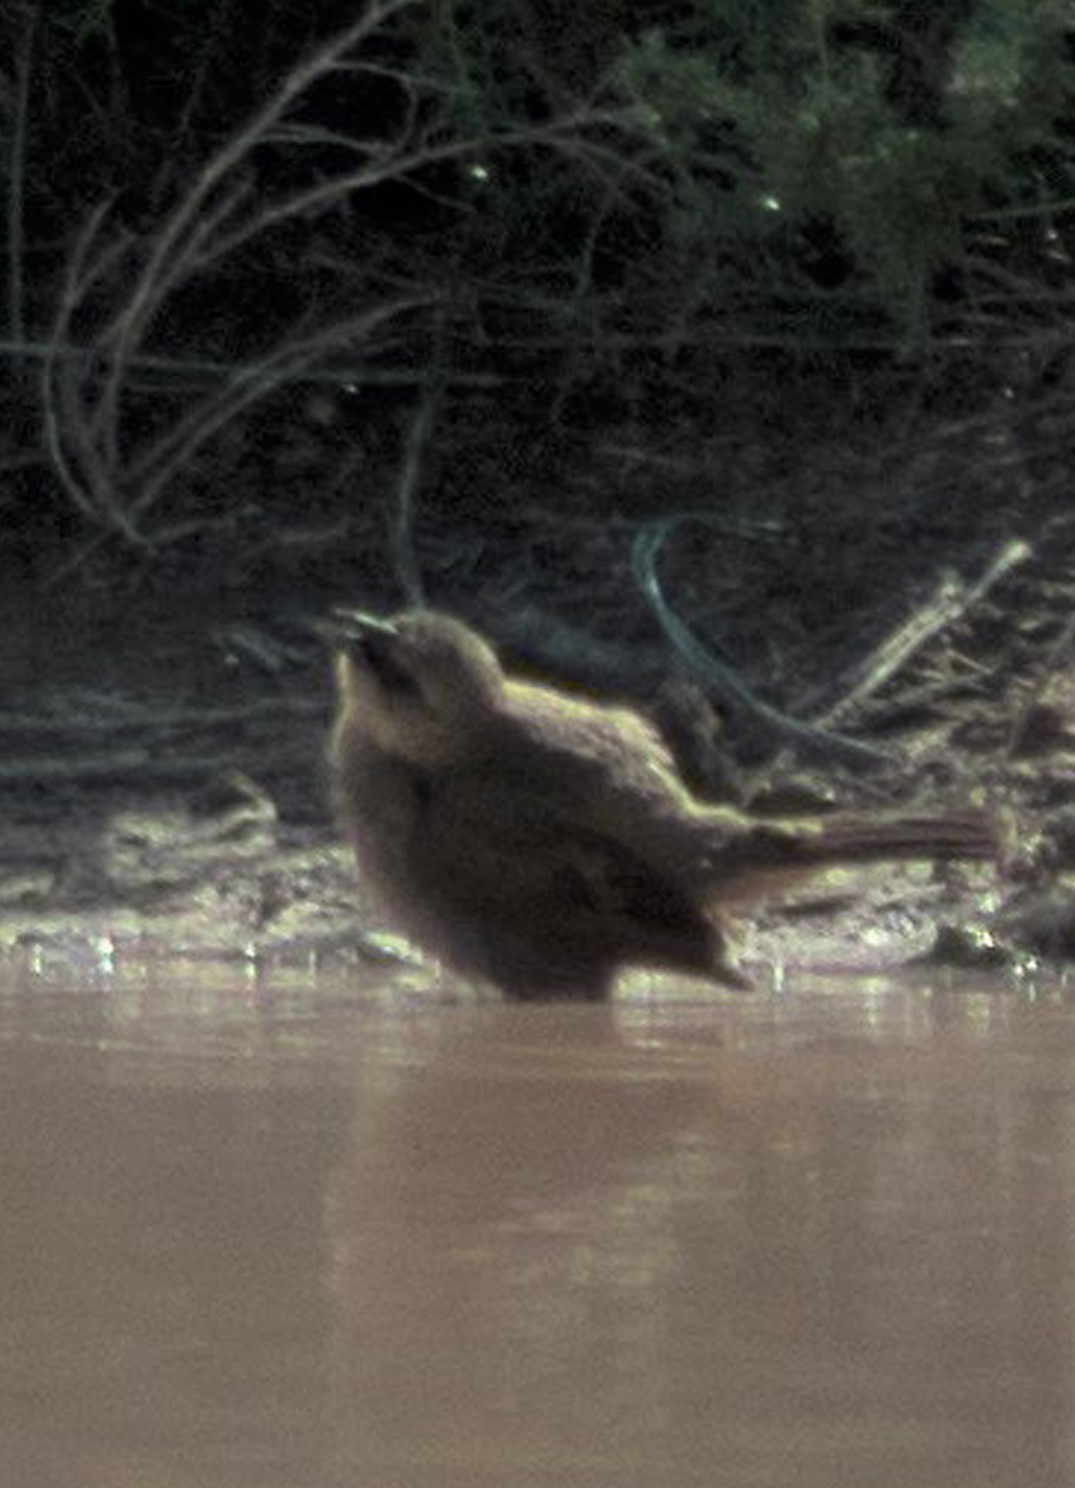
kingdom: Animalia
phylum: Chordata
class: Aves
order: Passeriformes
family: Icteridae
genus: Agelaioides
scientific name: Agelaioides badius
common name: Baywing
